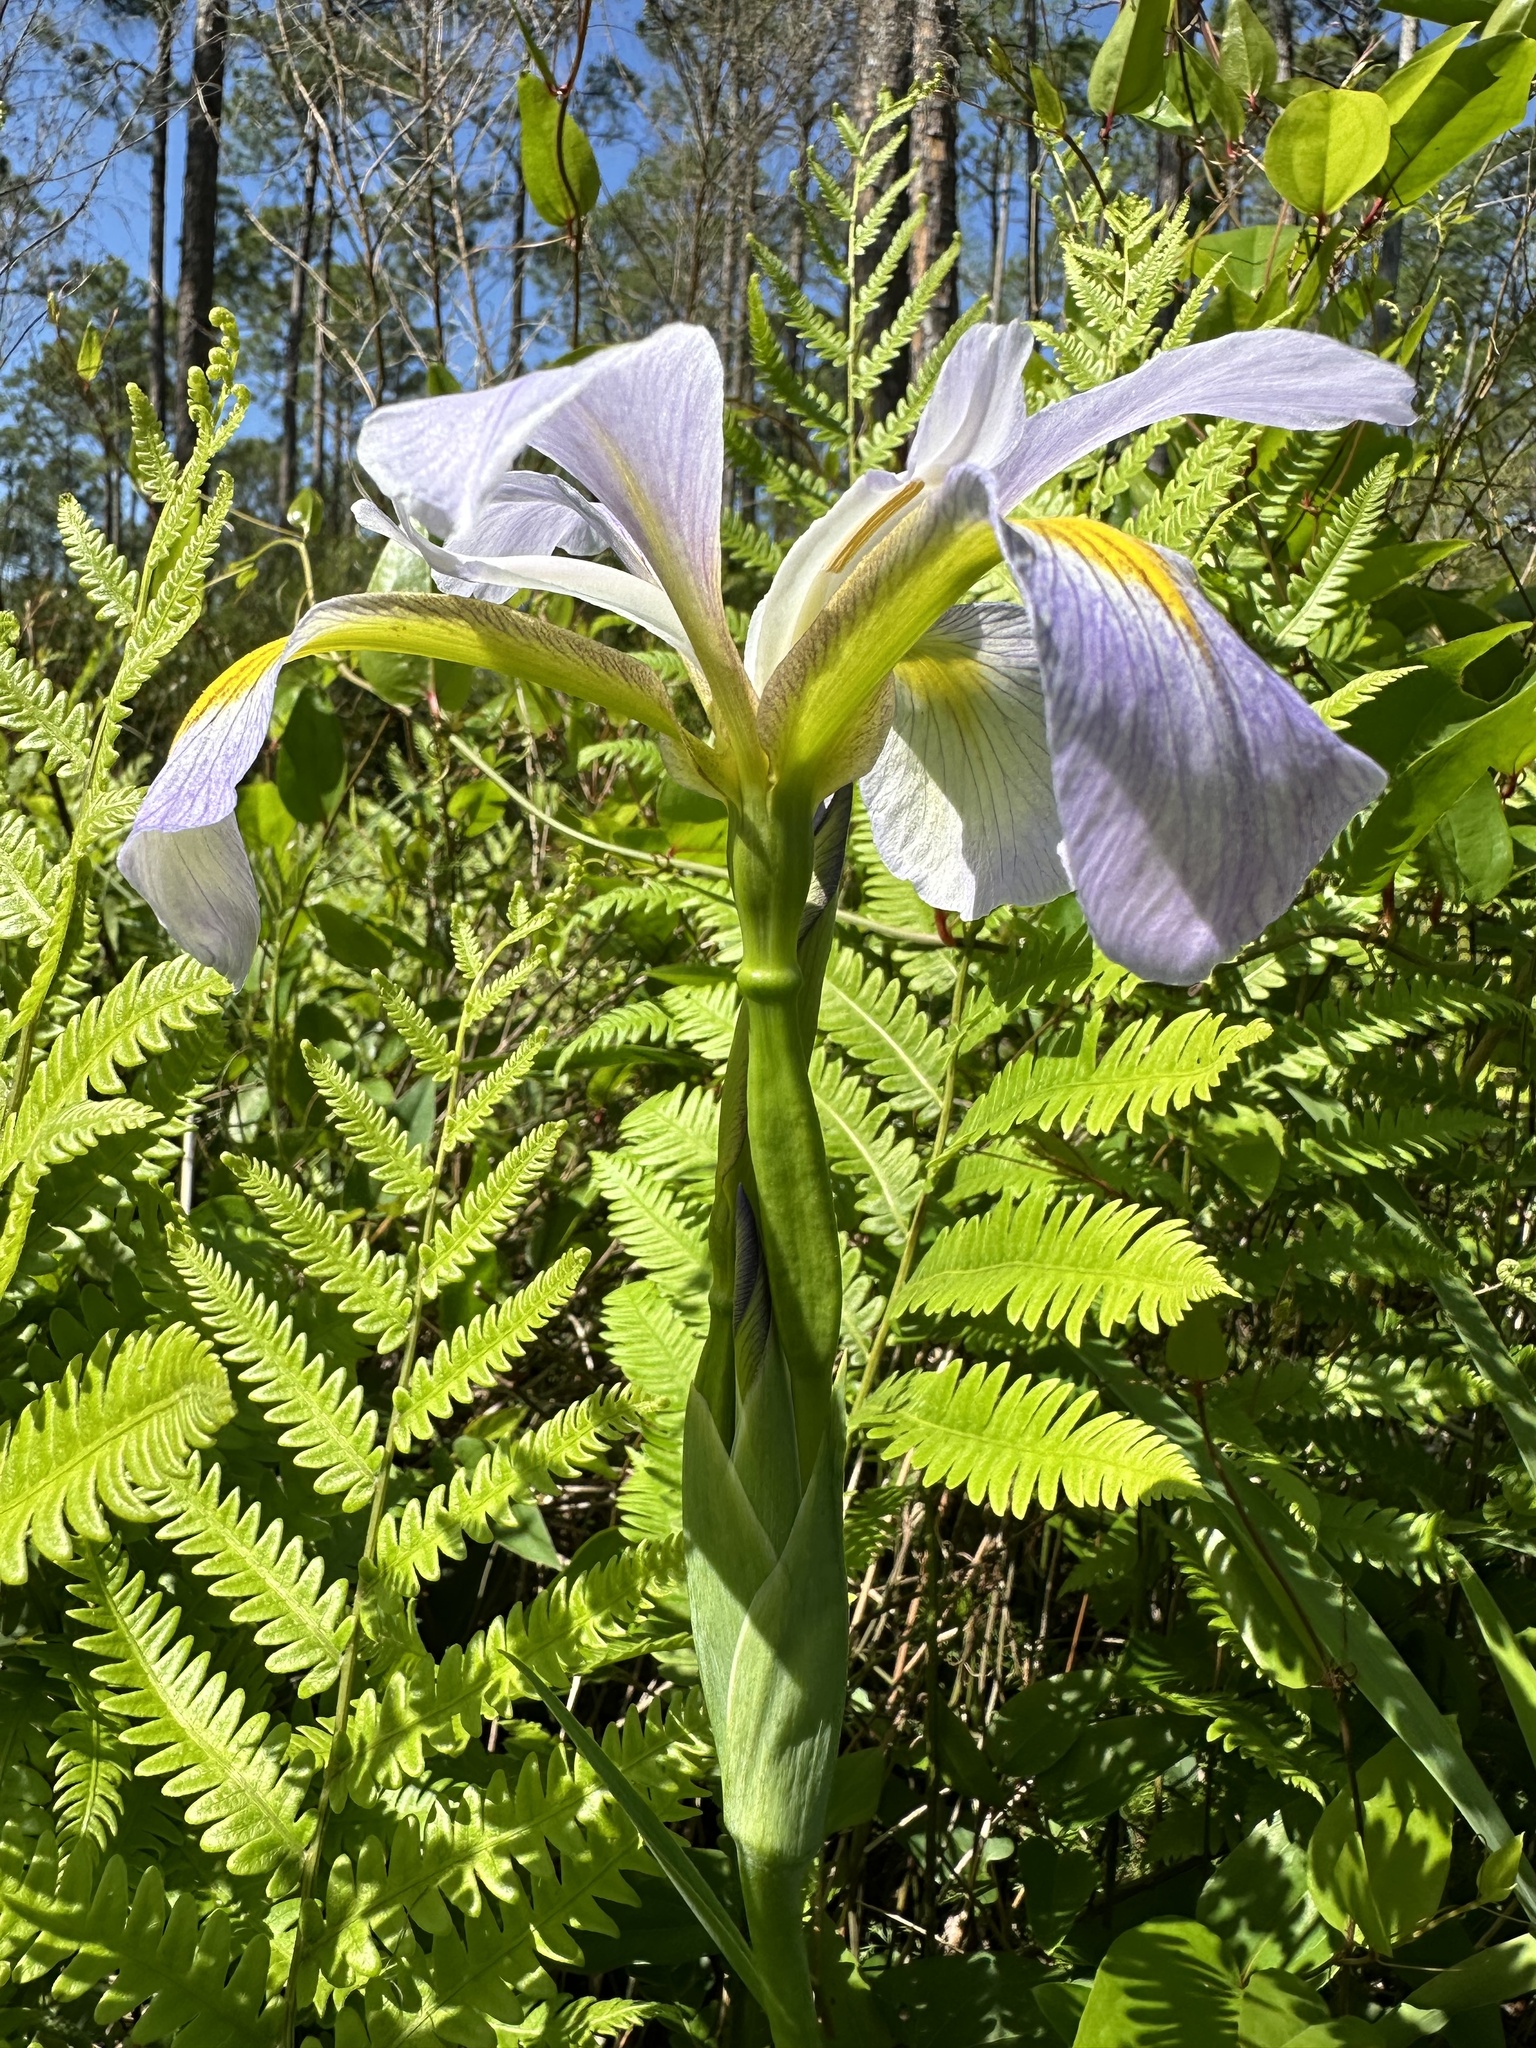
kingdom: Plantae
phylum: Tracheophyta
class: Liliopsida
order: Asparagales
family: Iridaceae
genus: Iris
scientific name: Iris virginica
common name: Southern blue flag
